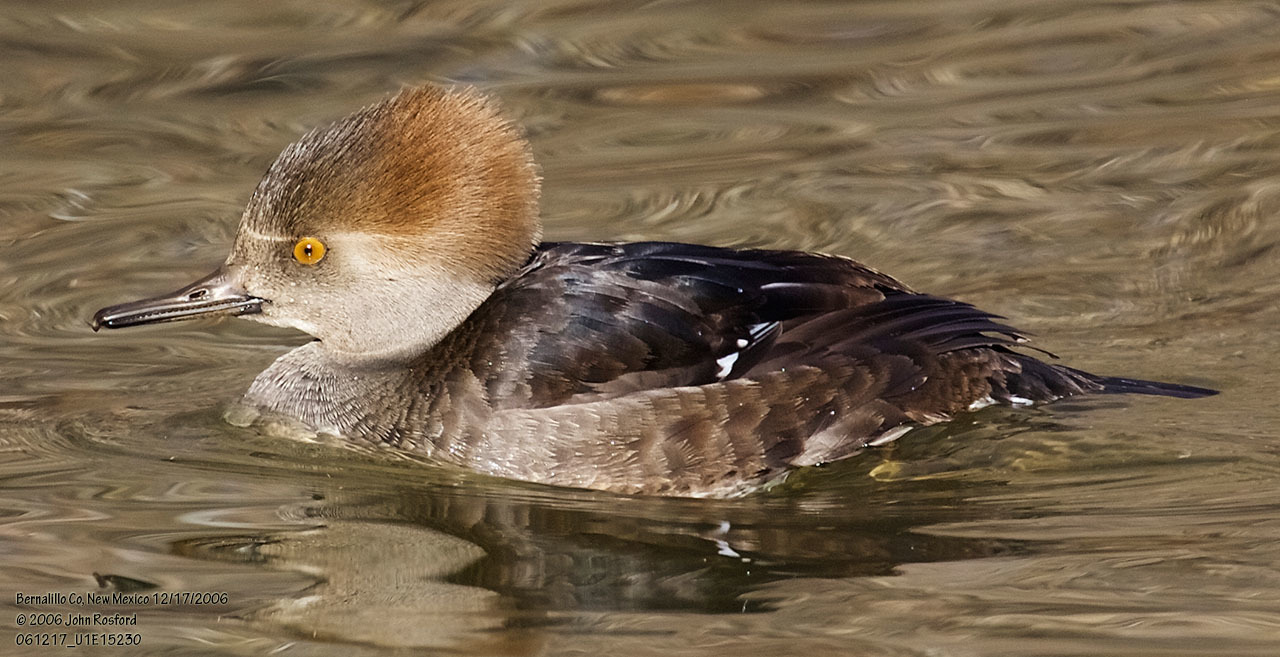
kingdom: Animalia
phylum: Chordata
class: Aves
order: Anseriformes
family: Anatidae
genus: Lophodytes
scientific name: Lophodytes cucullatus
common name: Hooded merganser
